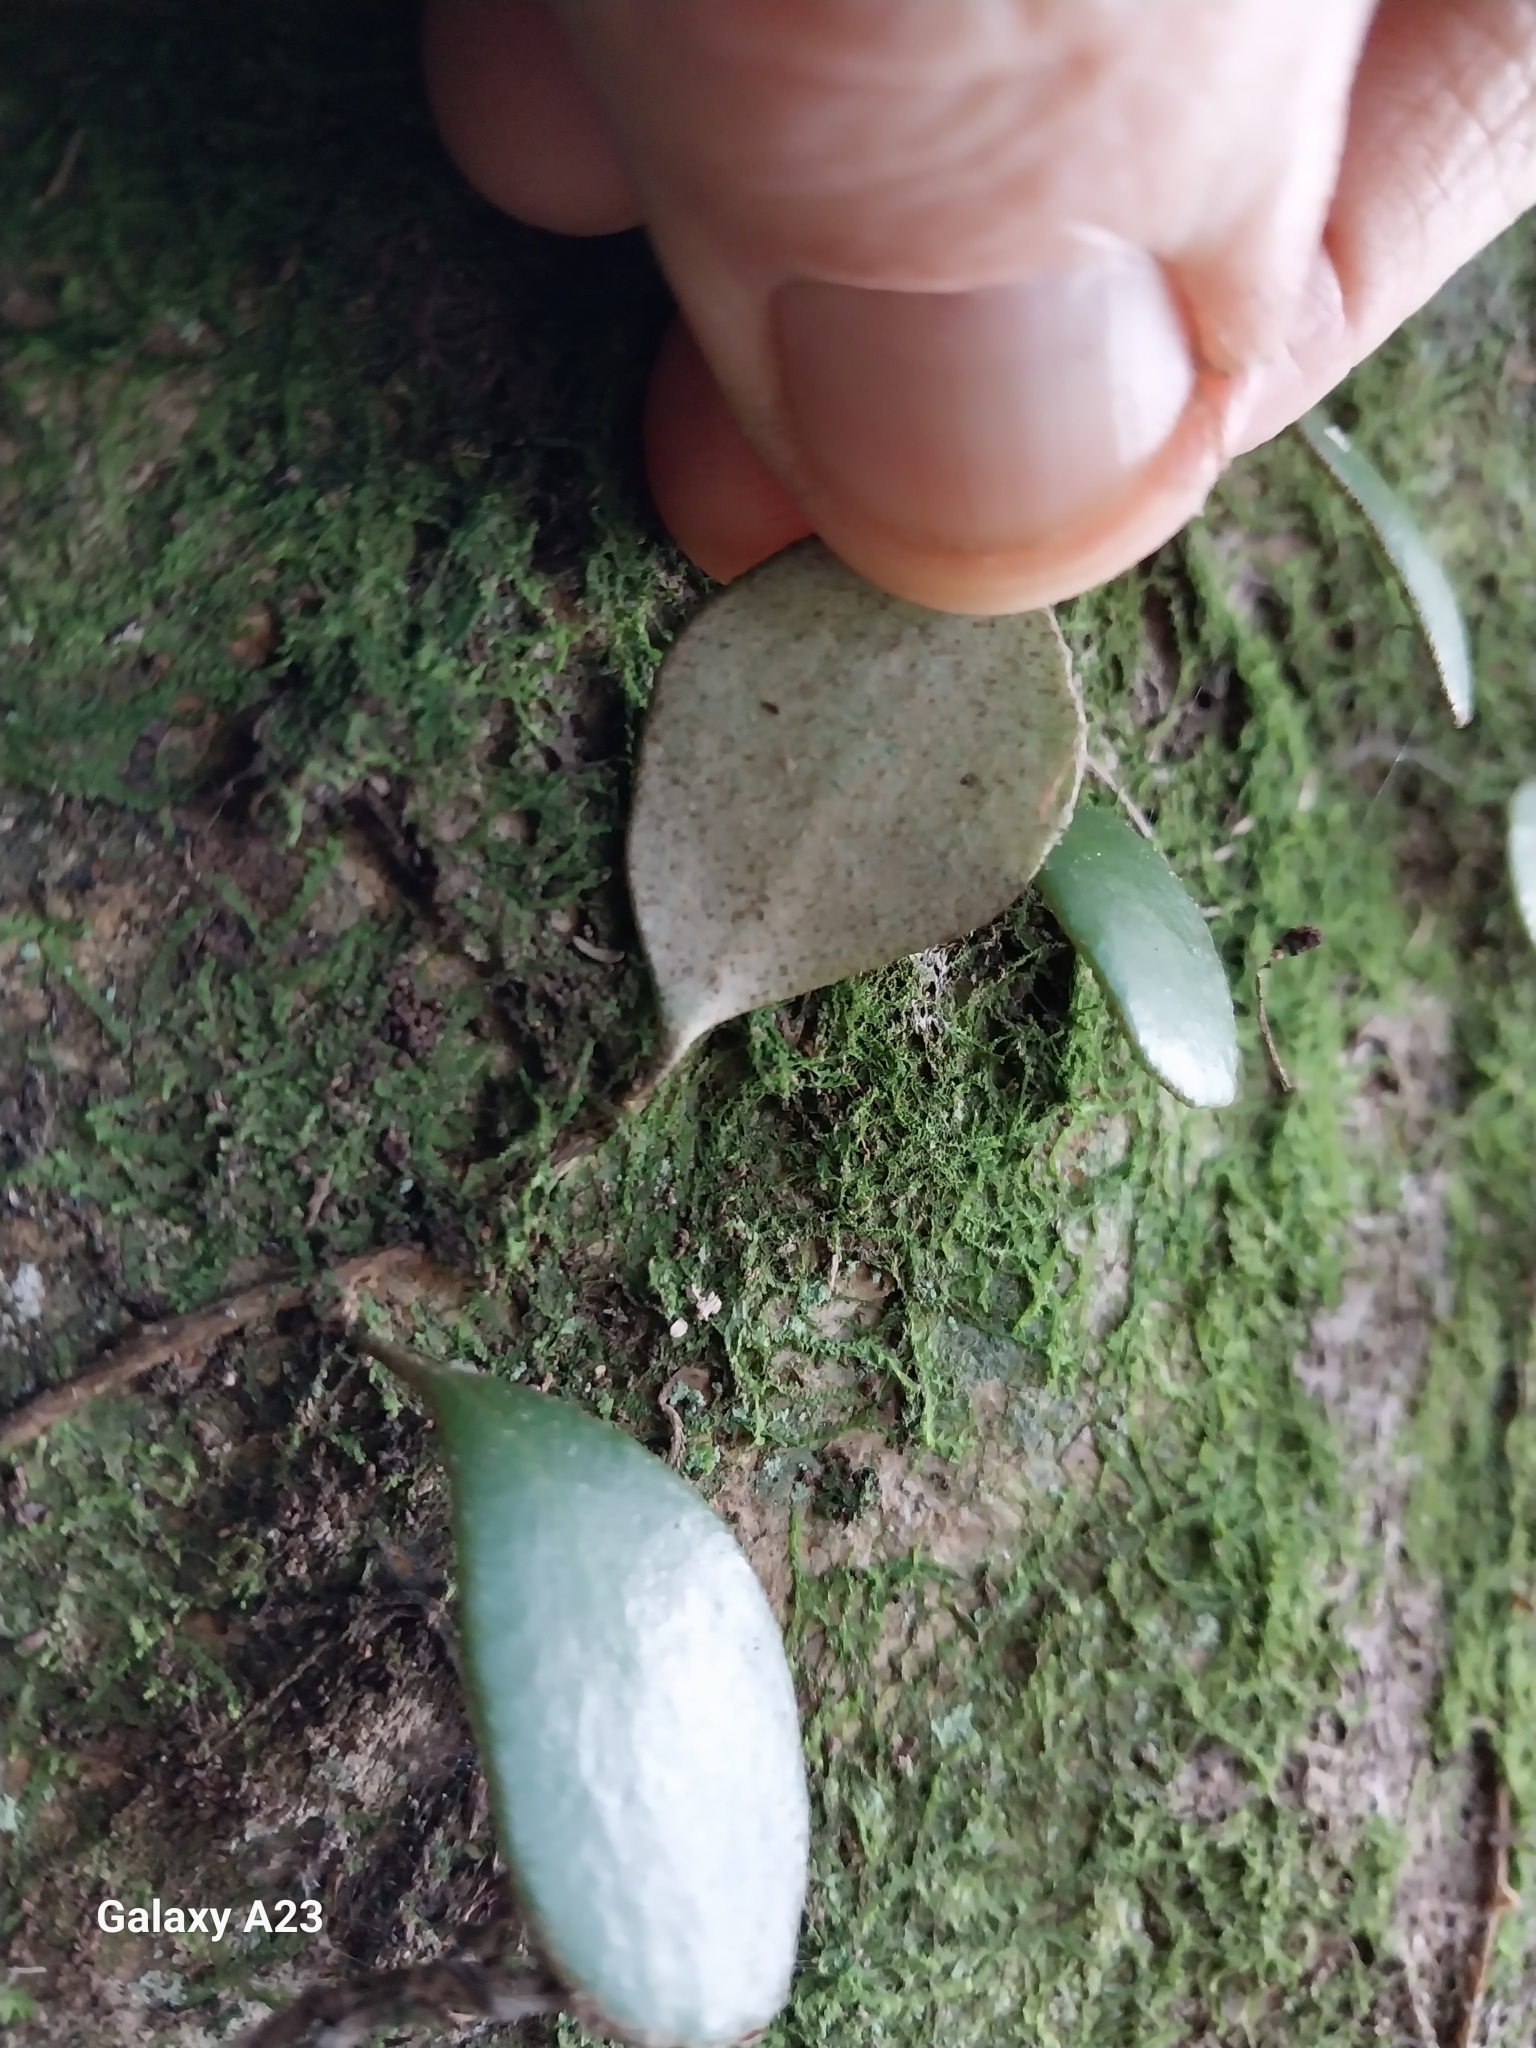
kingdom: Plantae
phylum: Tracheophyta
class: Polypodiopsida
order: Polypodiales
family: Polypodiaceae
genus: Pyrrosia
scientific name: Pyrrosia eleagnifolia
